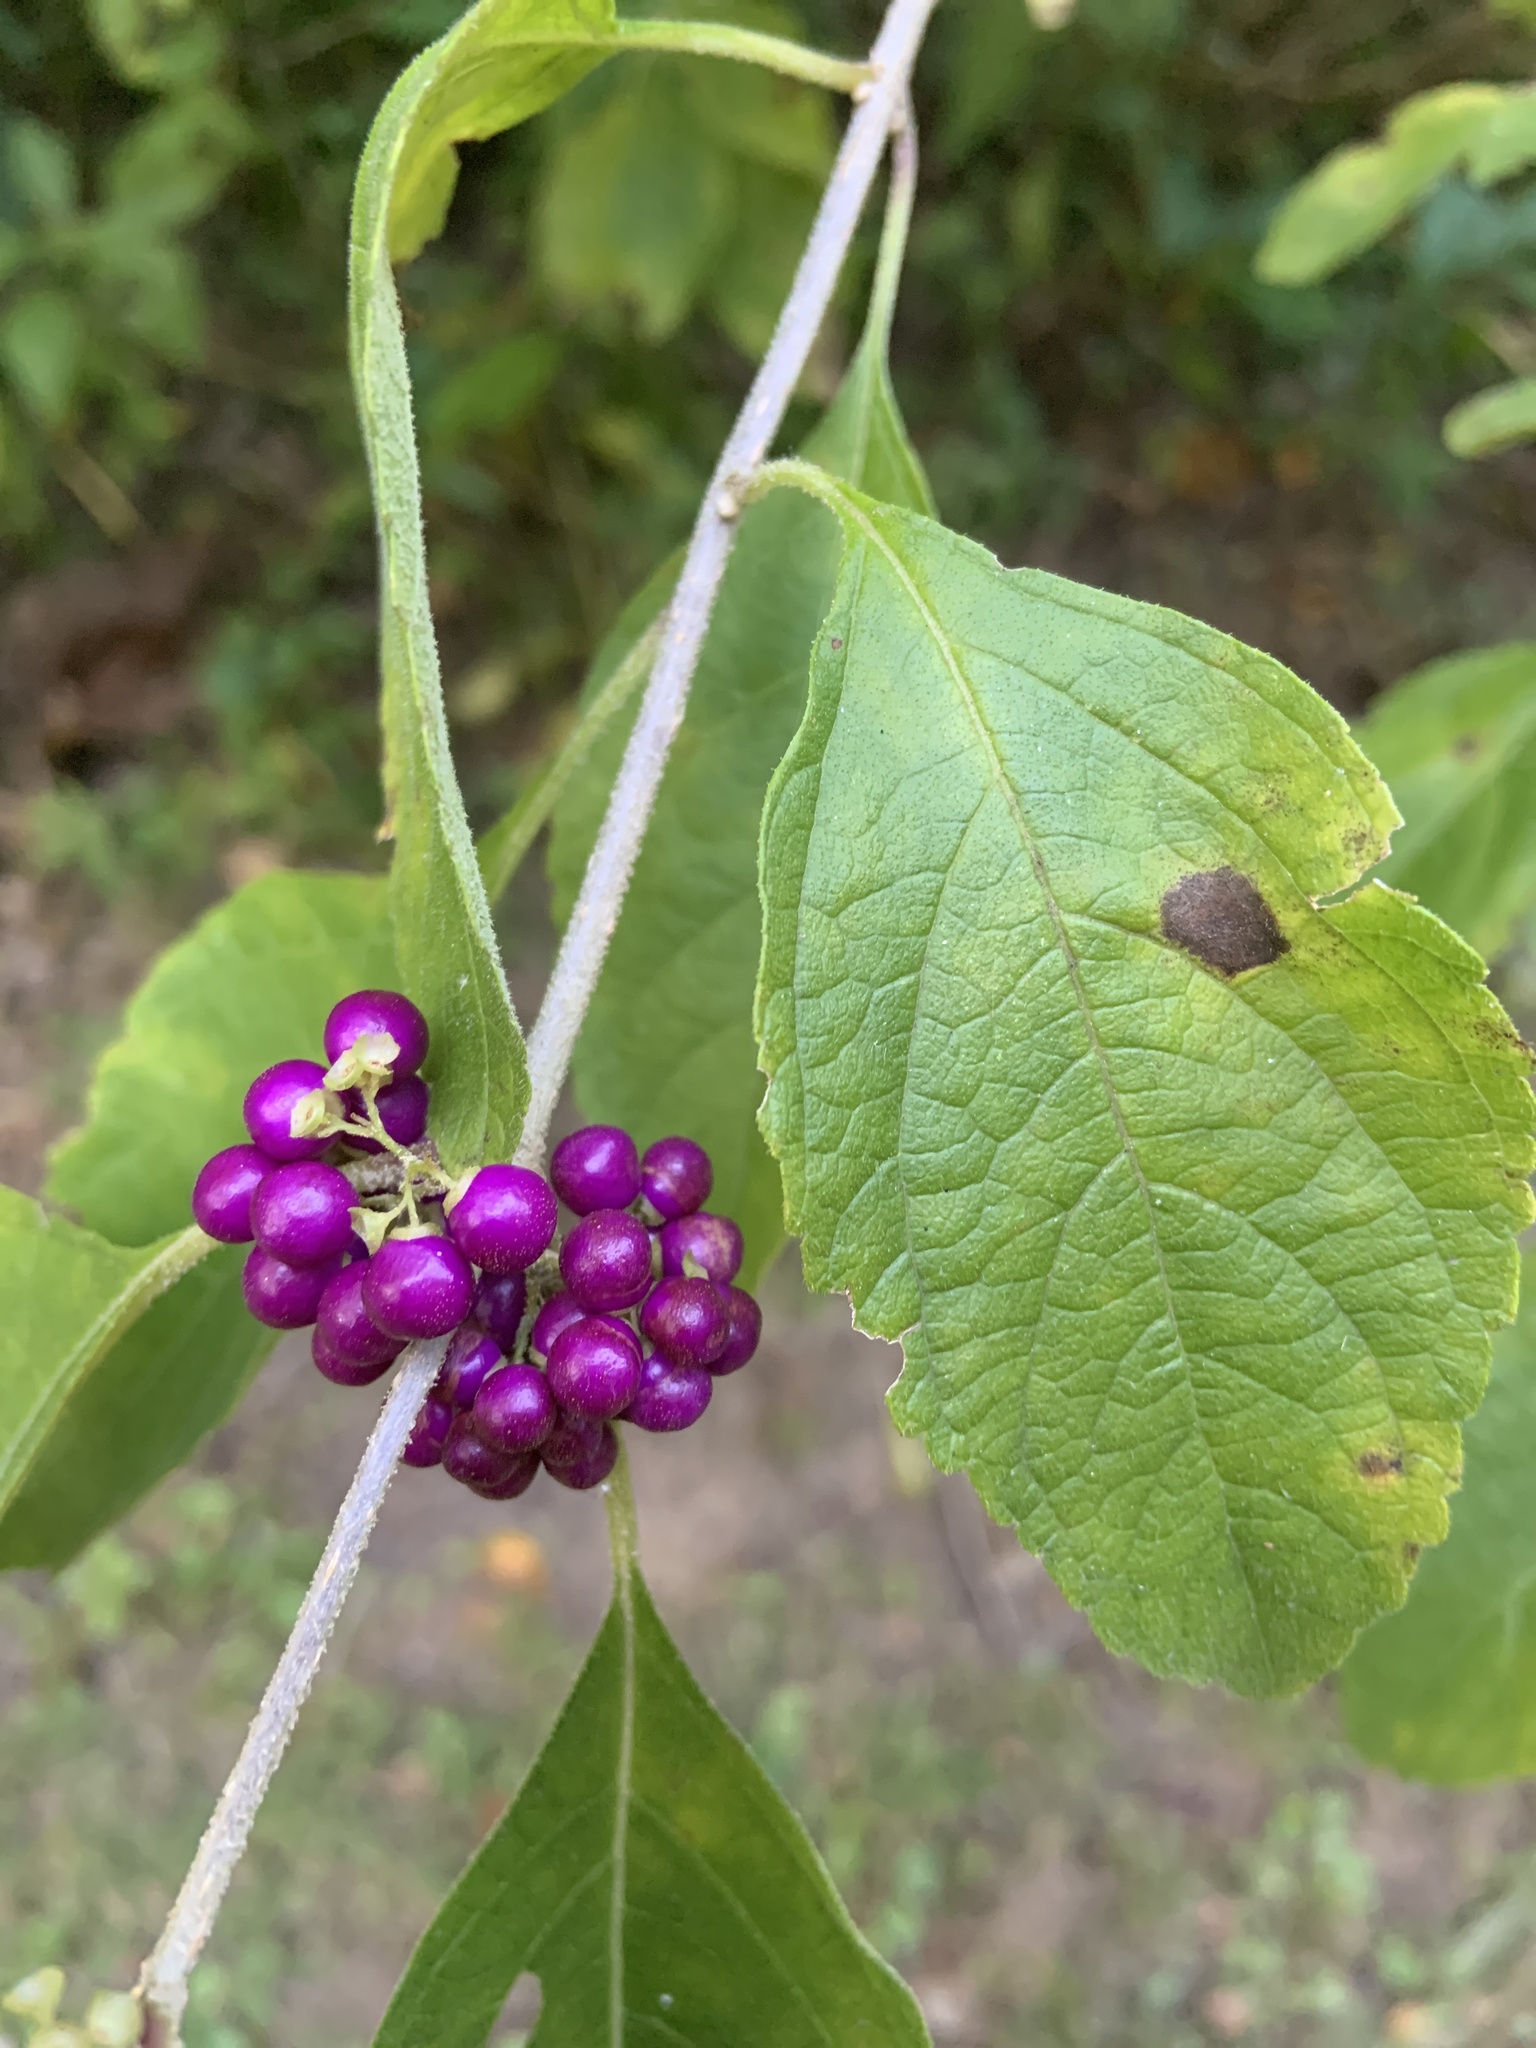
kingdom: Plantae
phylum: Tracheophyta
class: Magnoliopsida
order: Lamiales
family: Lamiaceae
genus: Callicarpa
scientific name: Callicarpa americana
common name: American beautyberry
